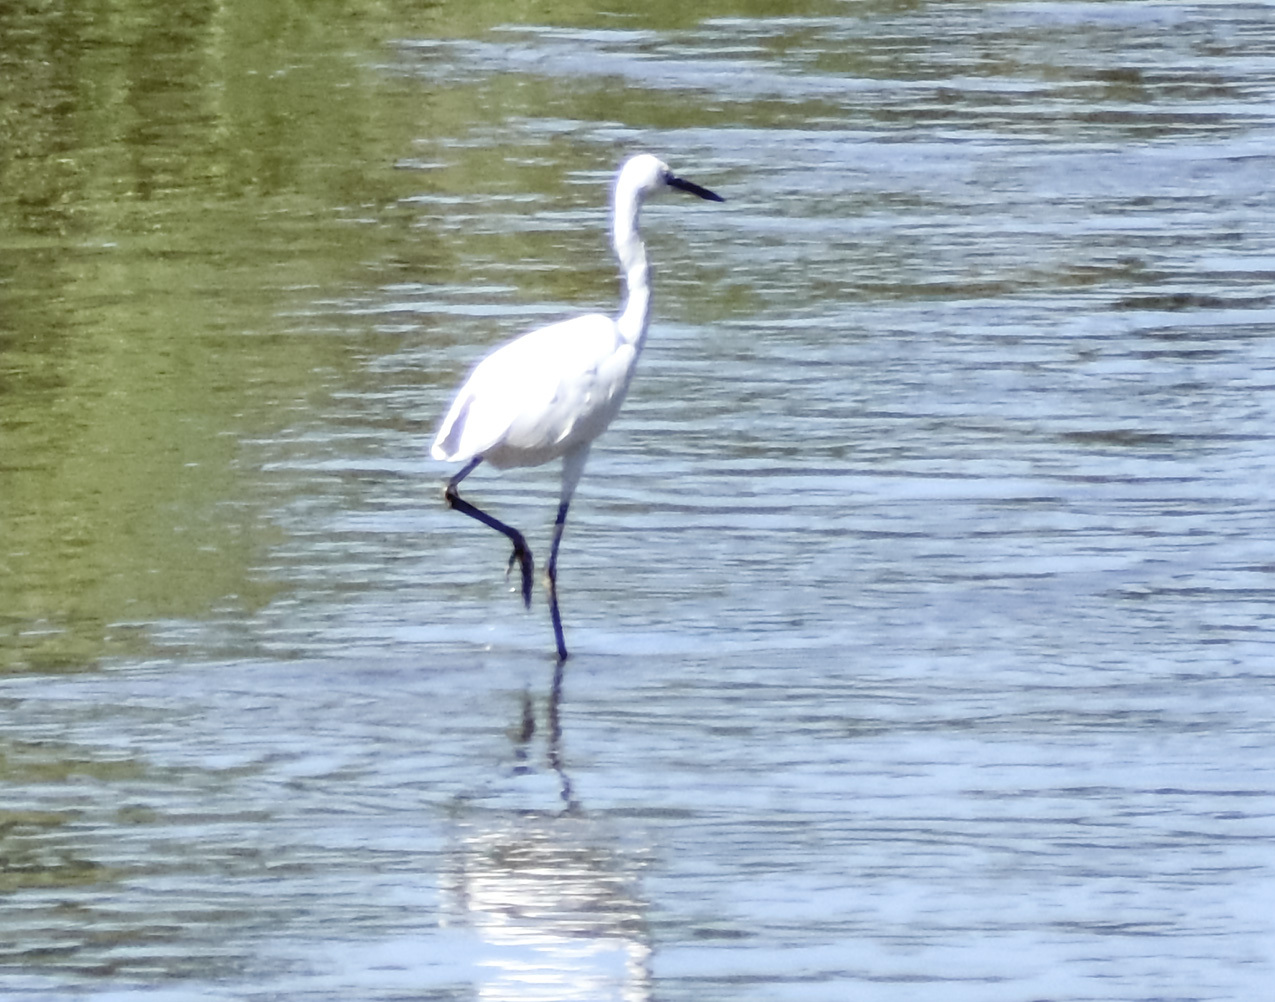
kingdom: Animalia
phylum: Chordata
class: Aves
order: Pelecaniformes
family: Ardeidae
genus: Egretta
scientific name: Egretta garzetta
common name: Little egret
